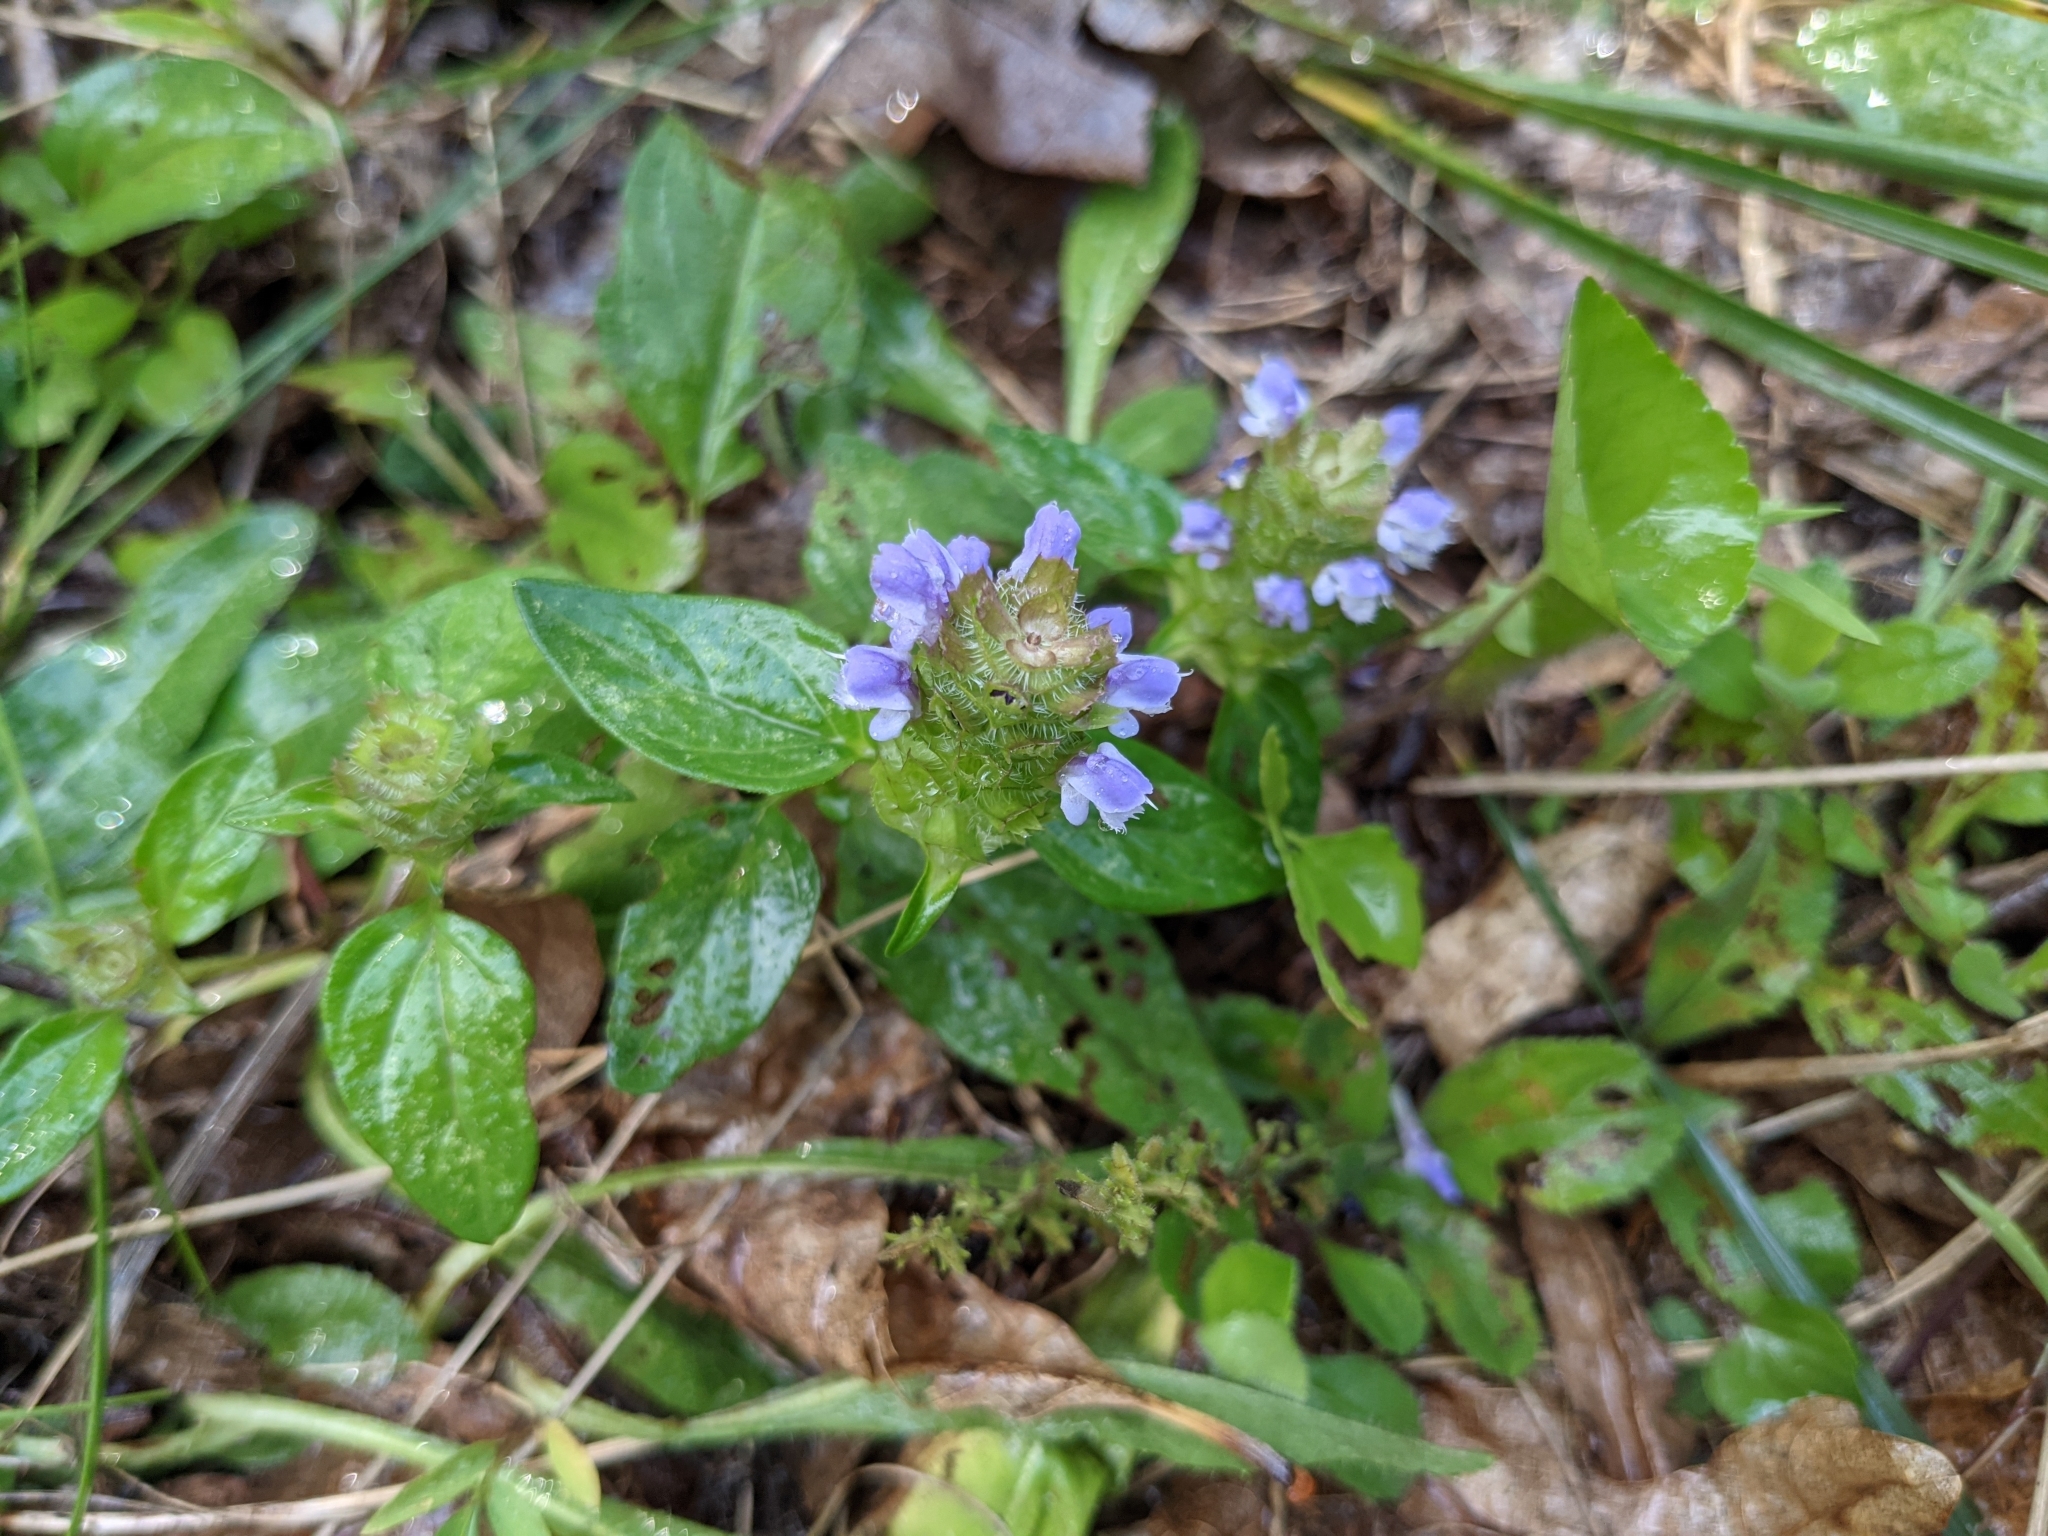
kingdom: Plantae
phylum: Tracheophyta
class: Magnoliopsida
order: Lamiales
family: Lamiaceae
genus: Prunella
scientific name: Prunella vulgaris
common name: Heal-all
